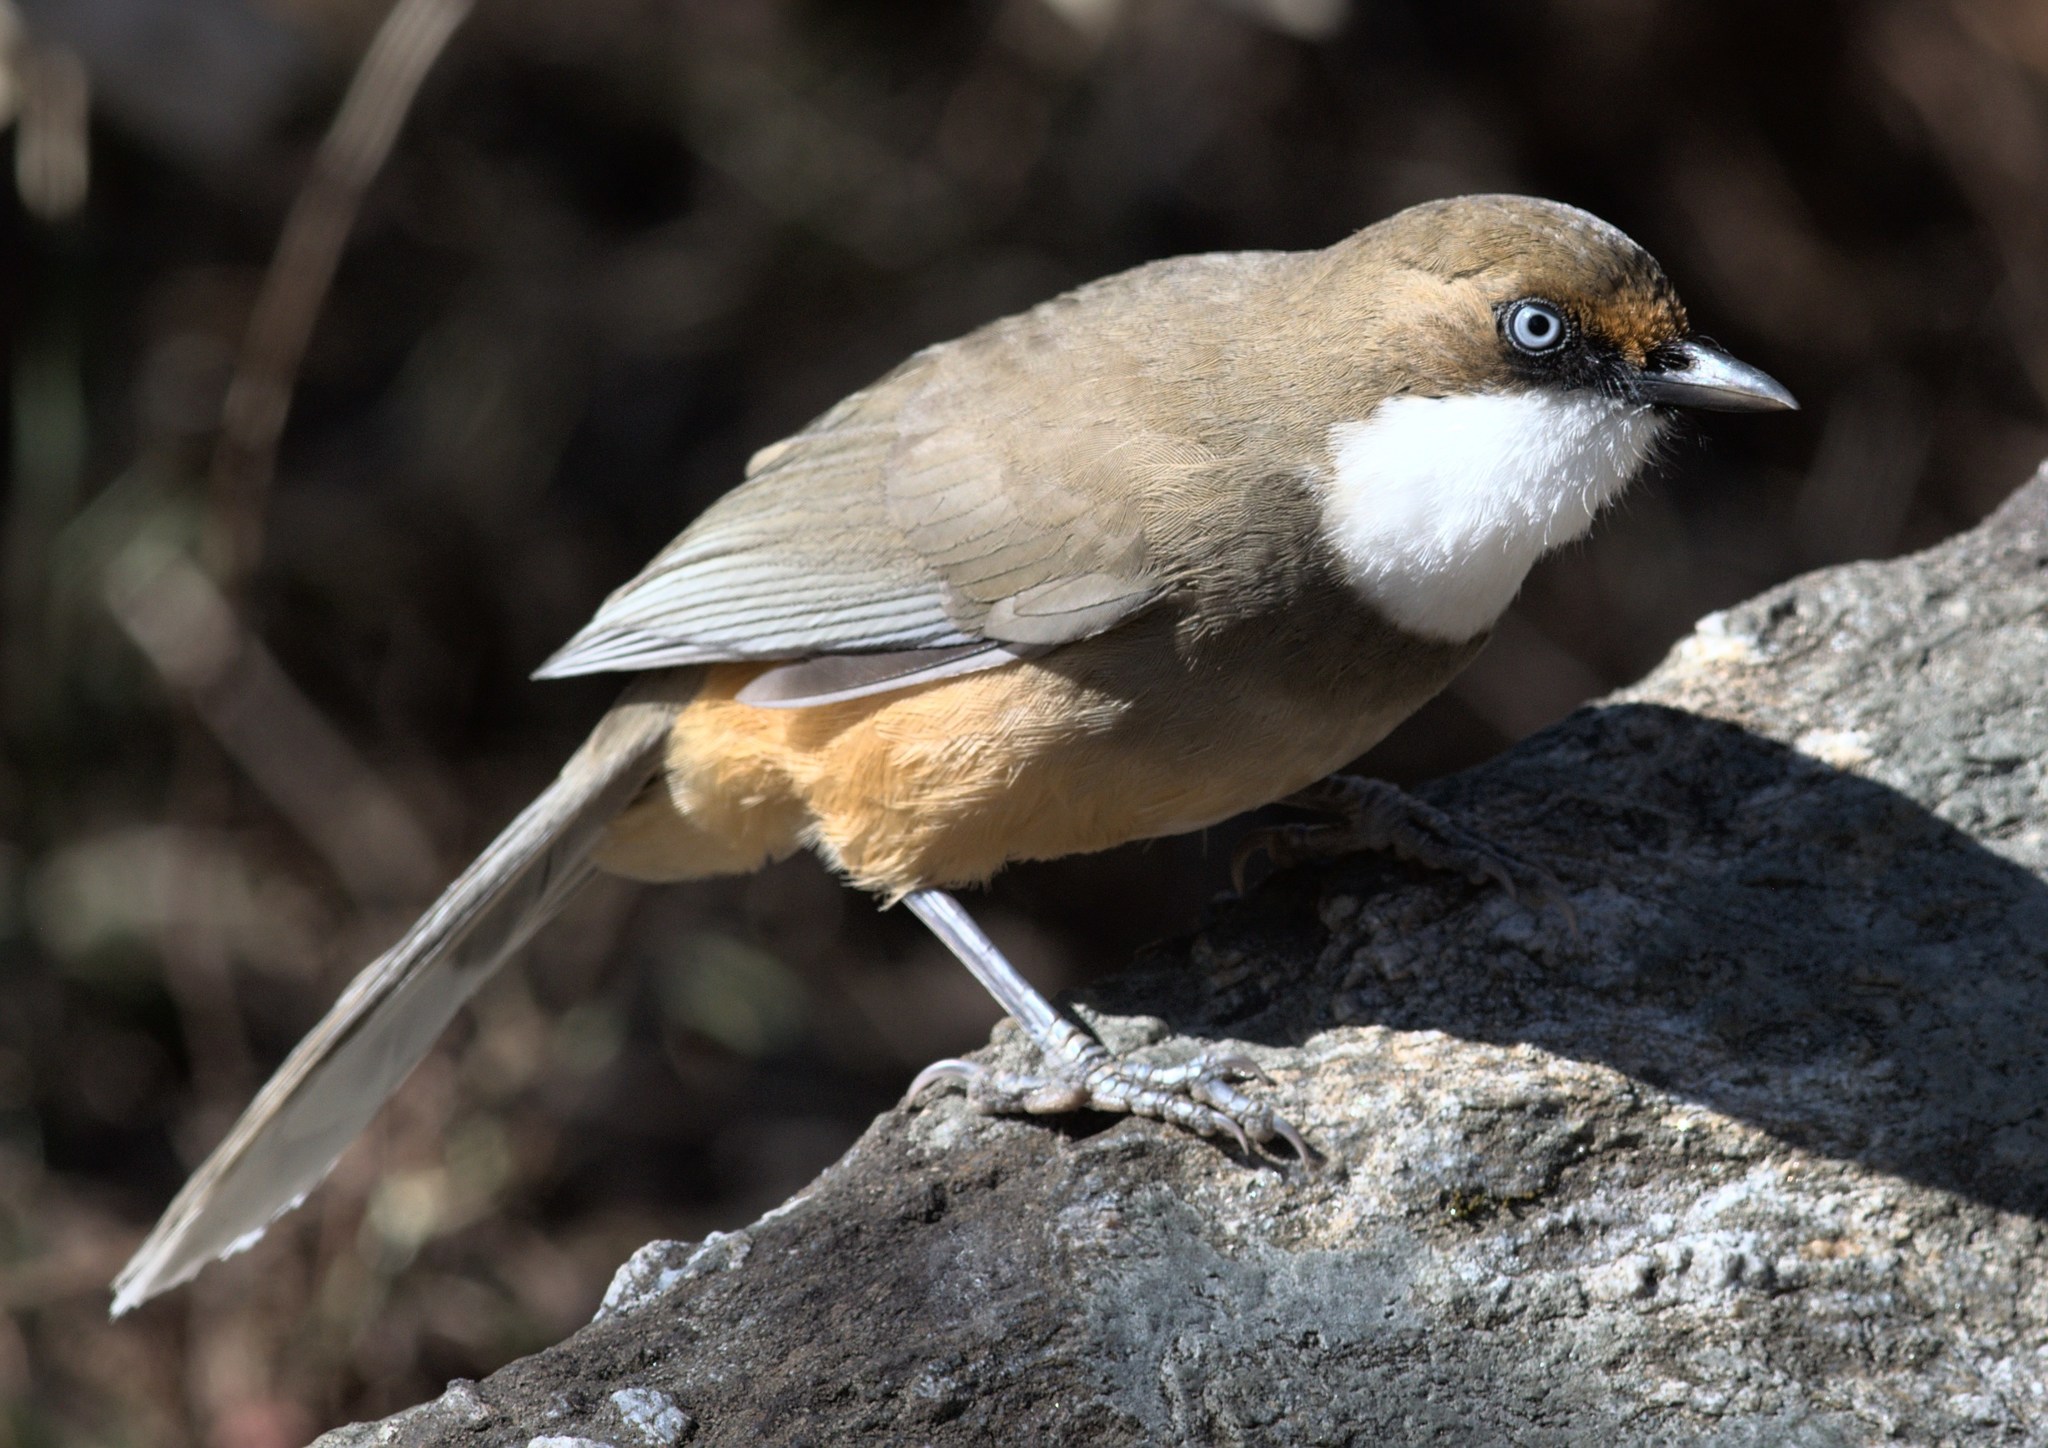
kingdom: Animalia
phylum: Chordata
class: Aves
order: Passeriformes
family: Leiothrichidae
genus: Garrulax
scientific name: Garrulax albogularis
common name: White-throated laughingthrush
